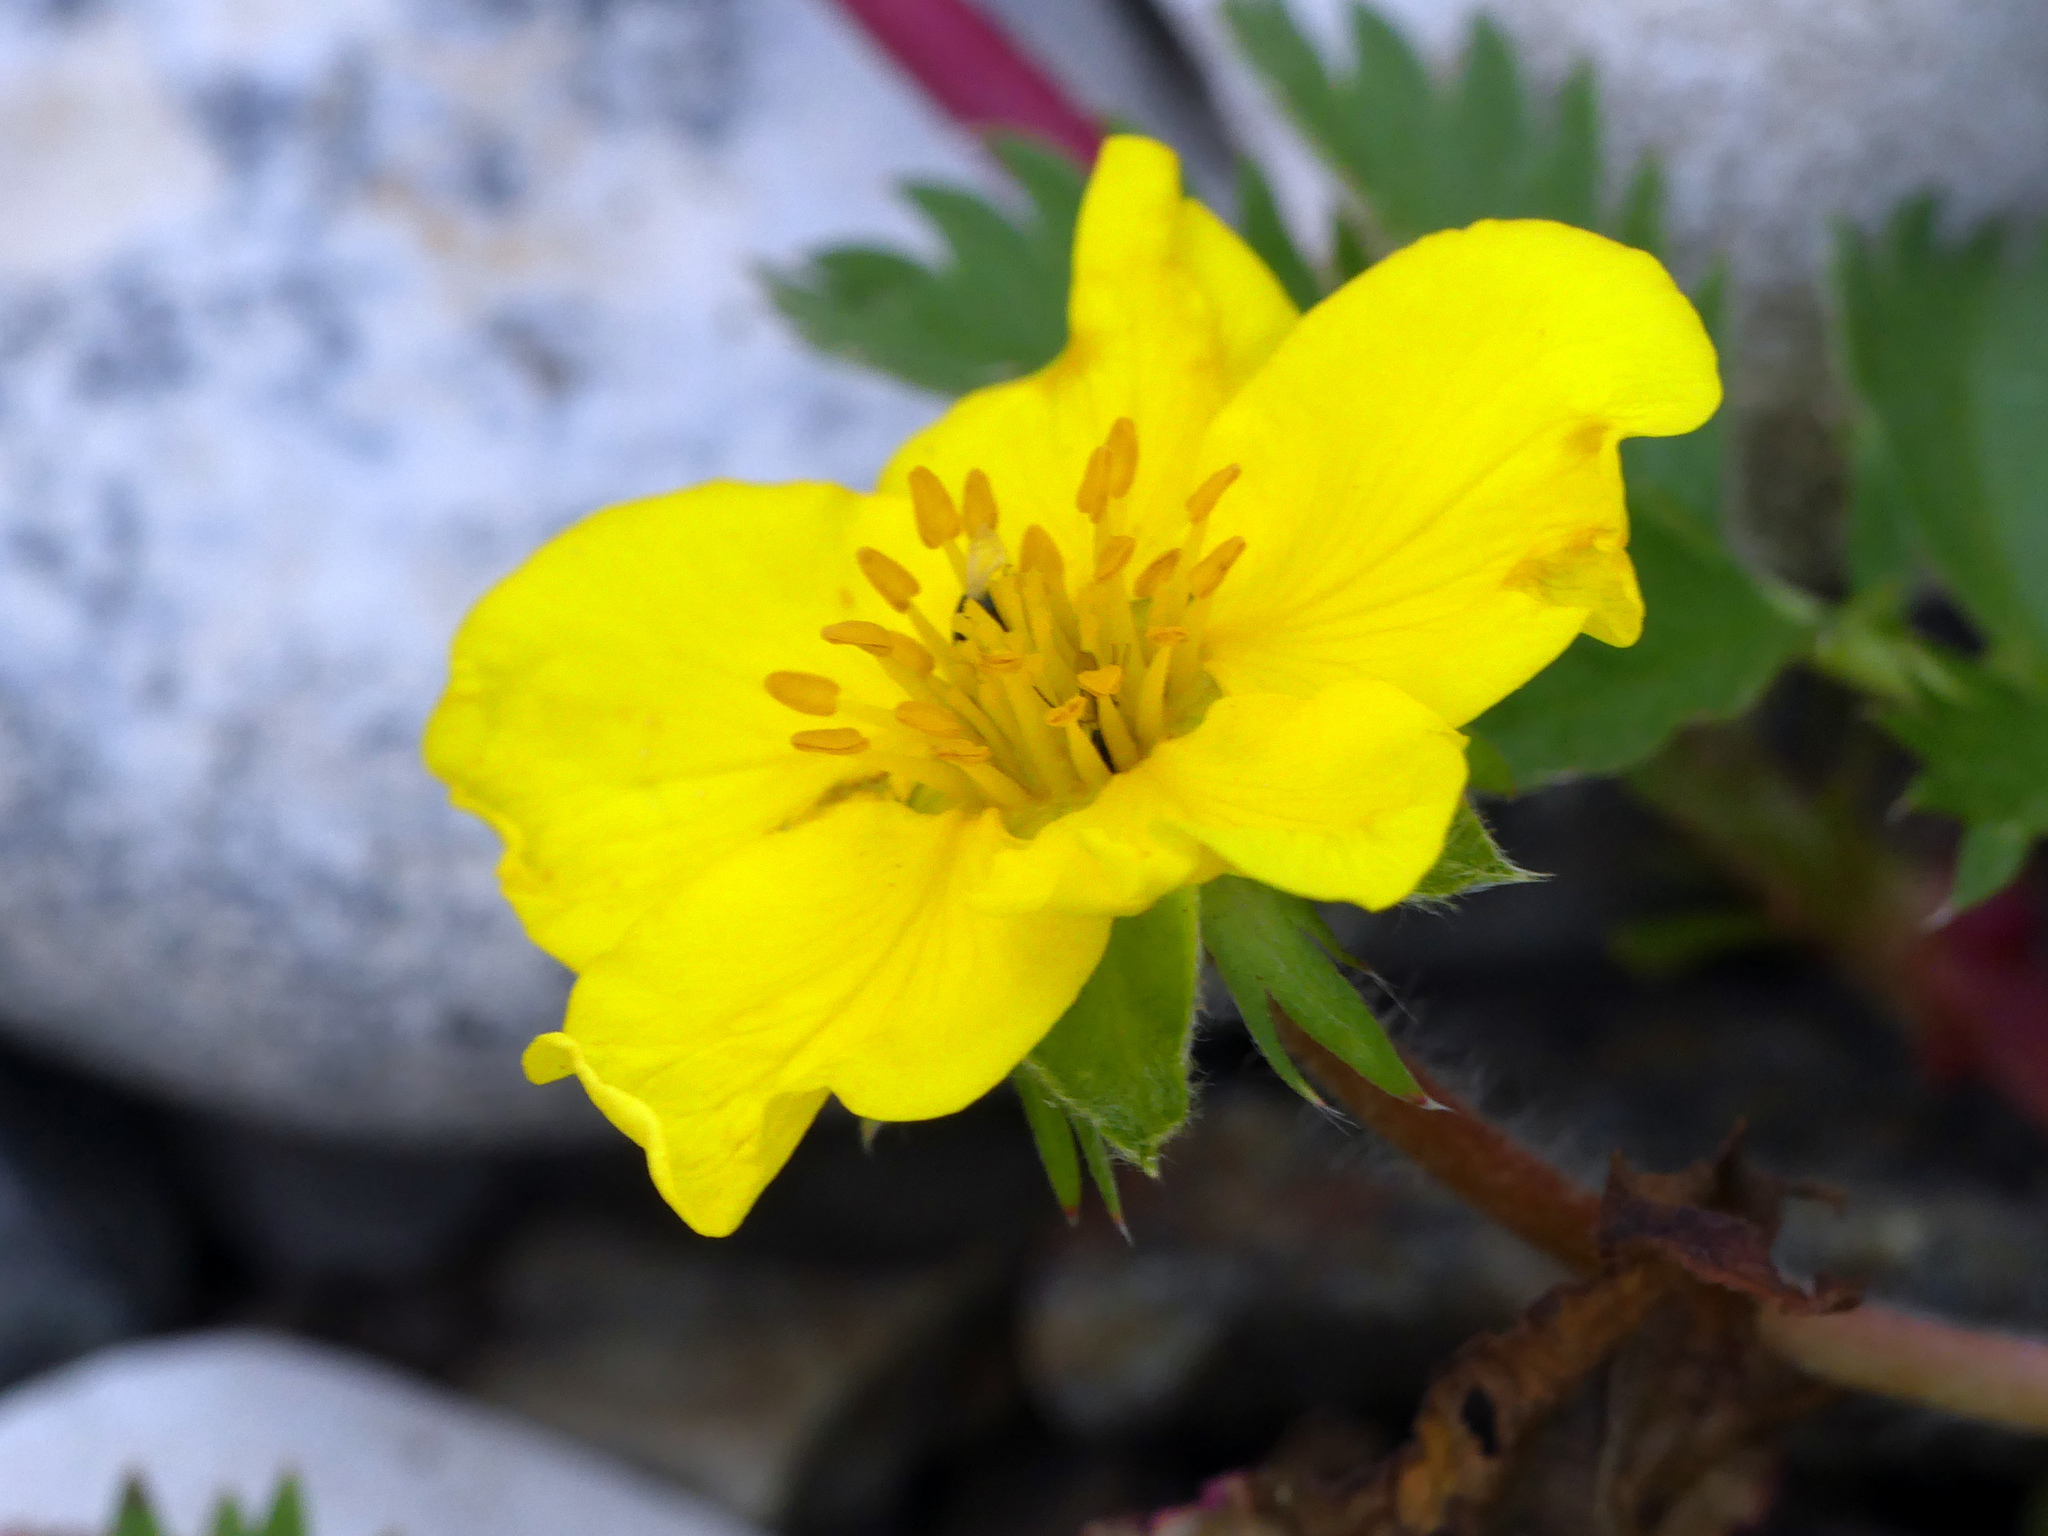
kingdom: Plantae
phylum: Tracheophyta
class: Magnoliopsida
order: Rosales
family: Rosaceae
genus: Argentina
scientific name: Argentina anserina
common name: Common silverweed
